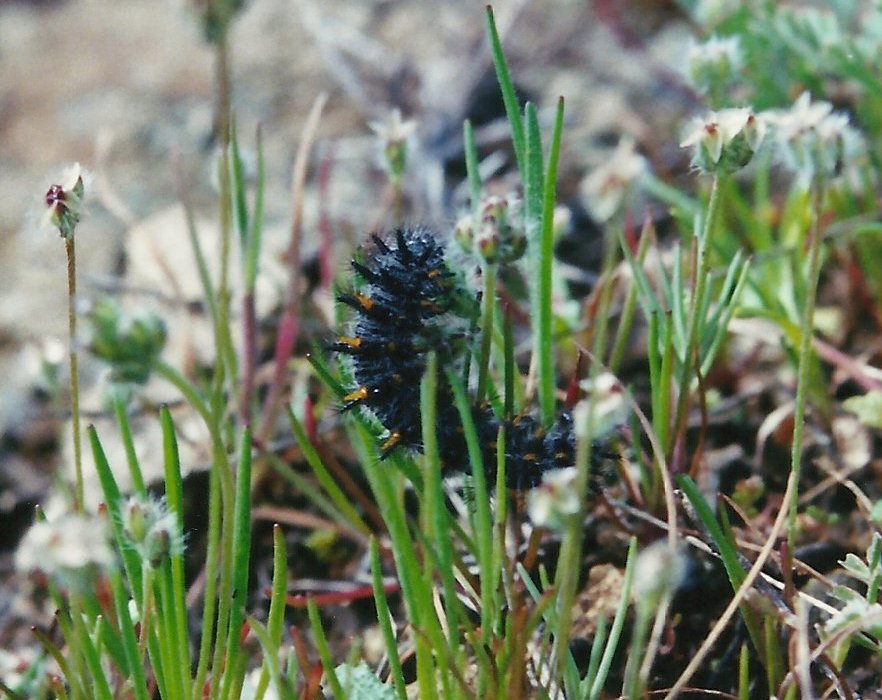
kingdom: Animalia
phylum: Arthropoda
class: Insecta
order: Lepidoptera
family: Nymphalidae
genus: Occidryas
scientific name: Occidryas editha
